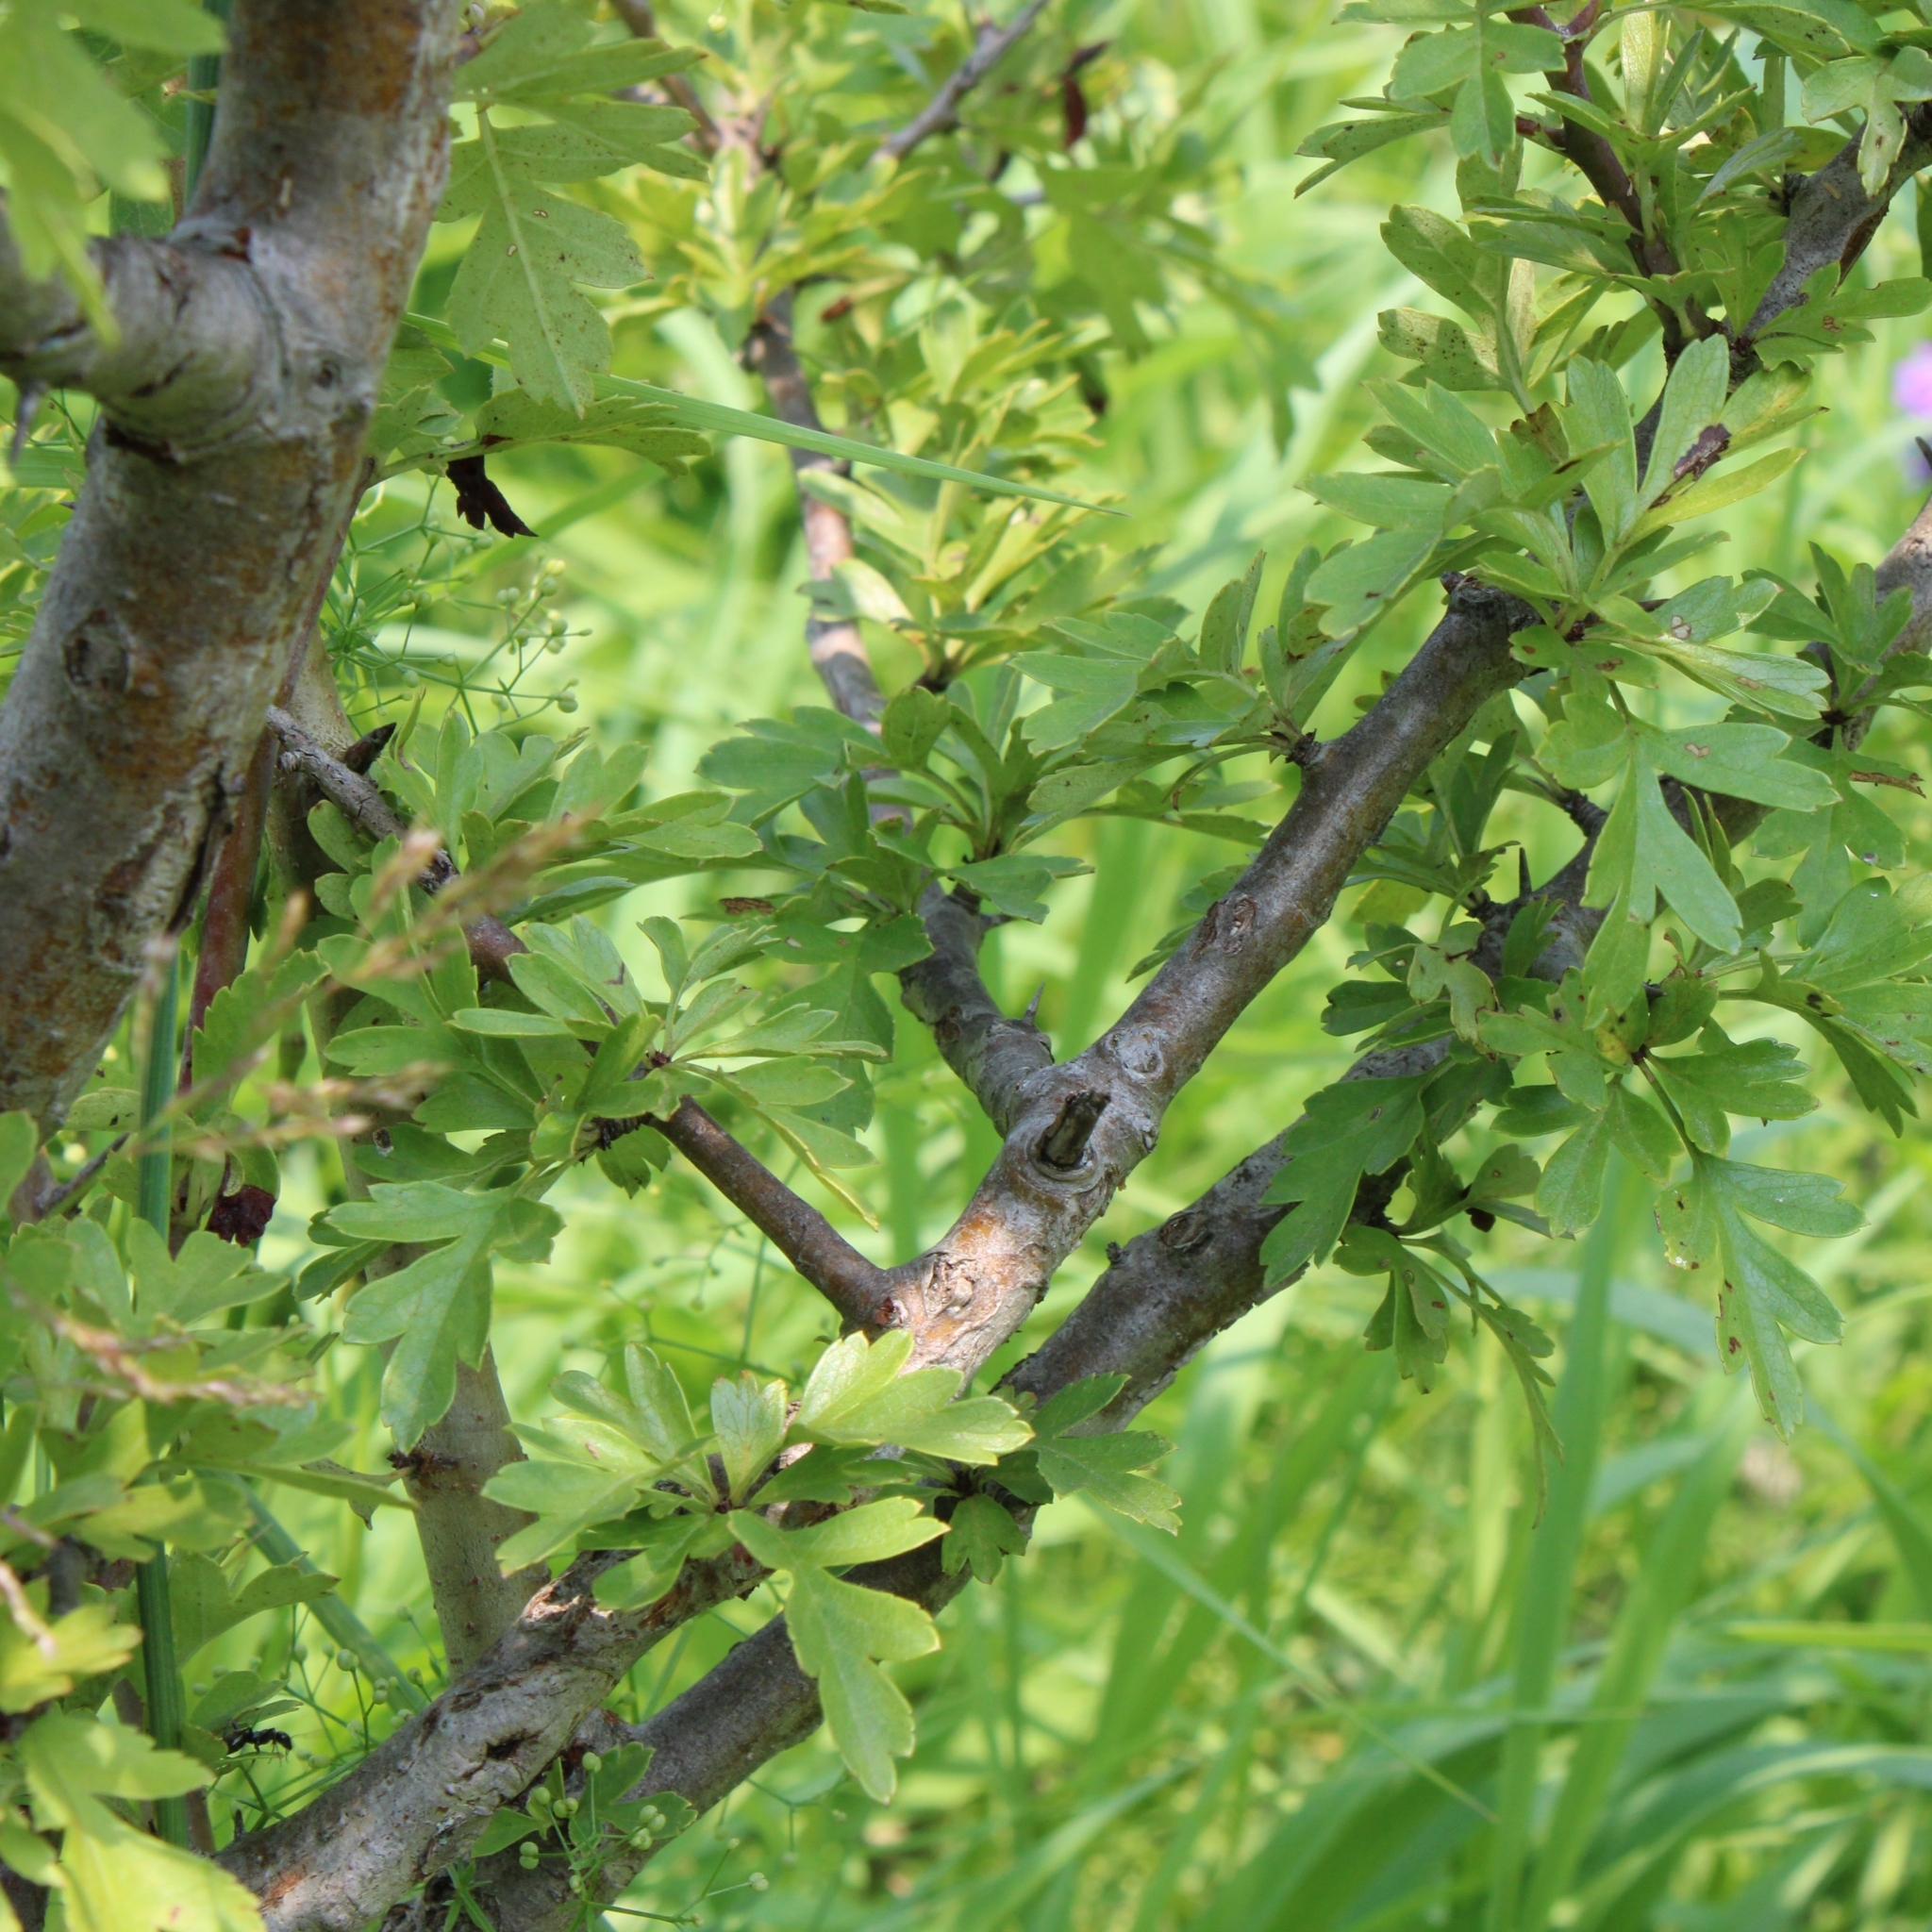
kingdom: Plantae
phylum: Tracheophyta
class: Magnoliopsida
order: Rosales
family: Rosaceae
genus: Crataegus
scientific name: Crataegus monogyna
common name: Hawthorn
